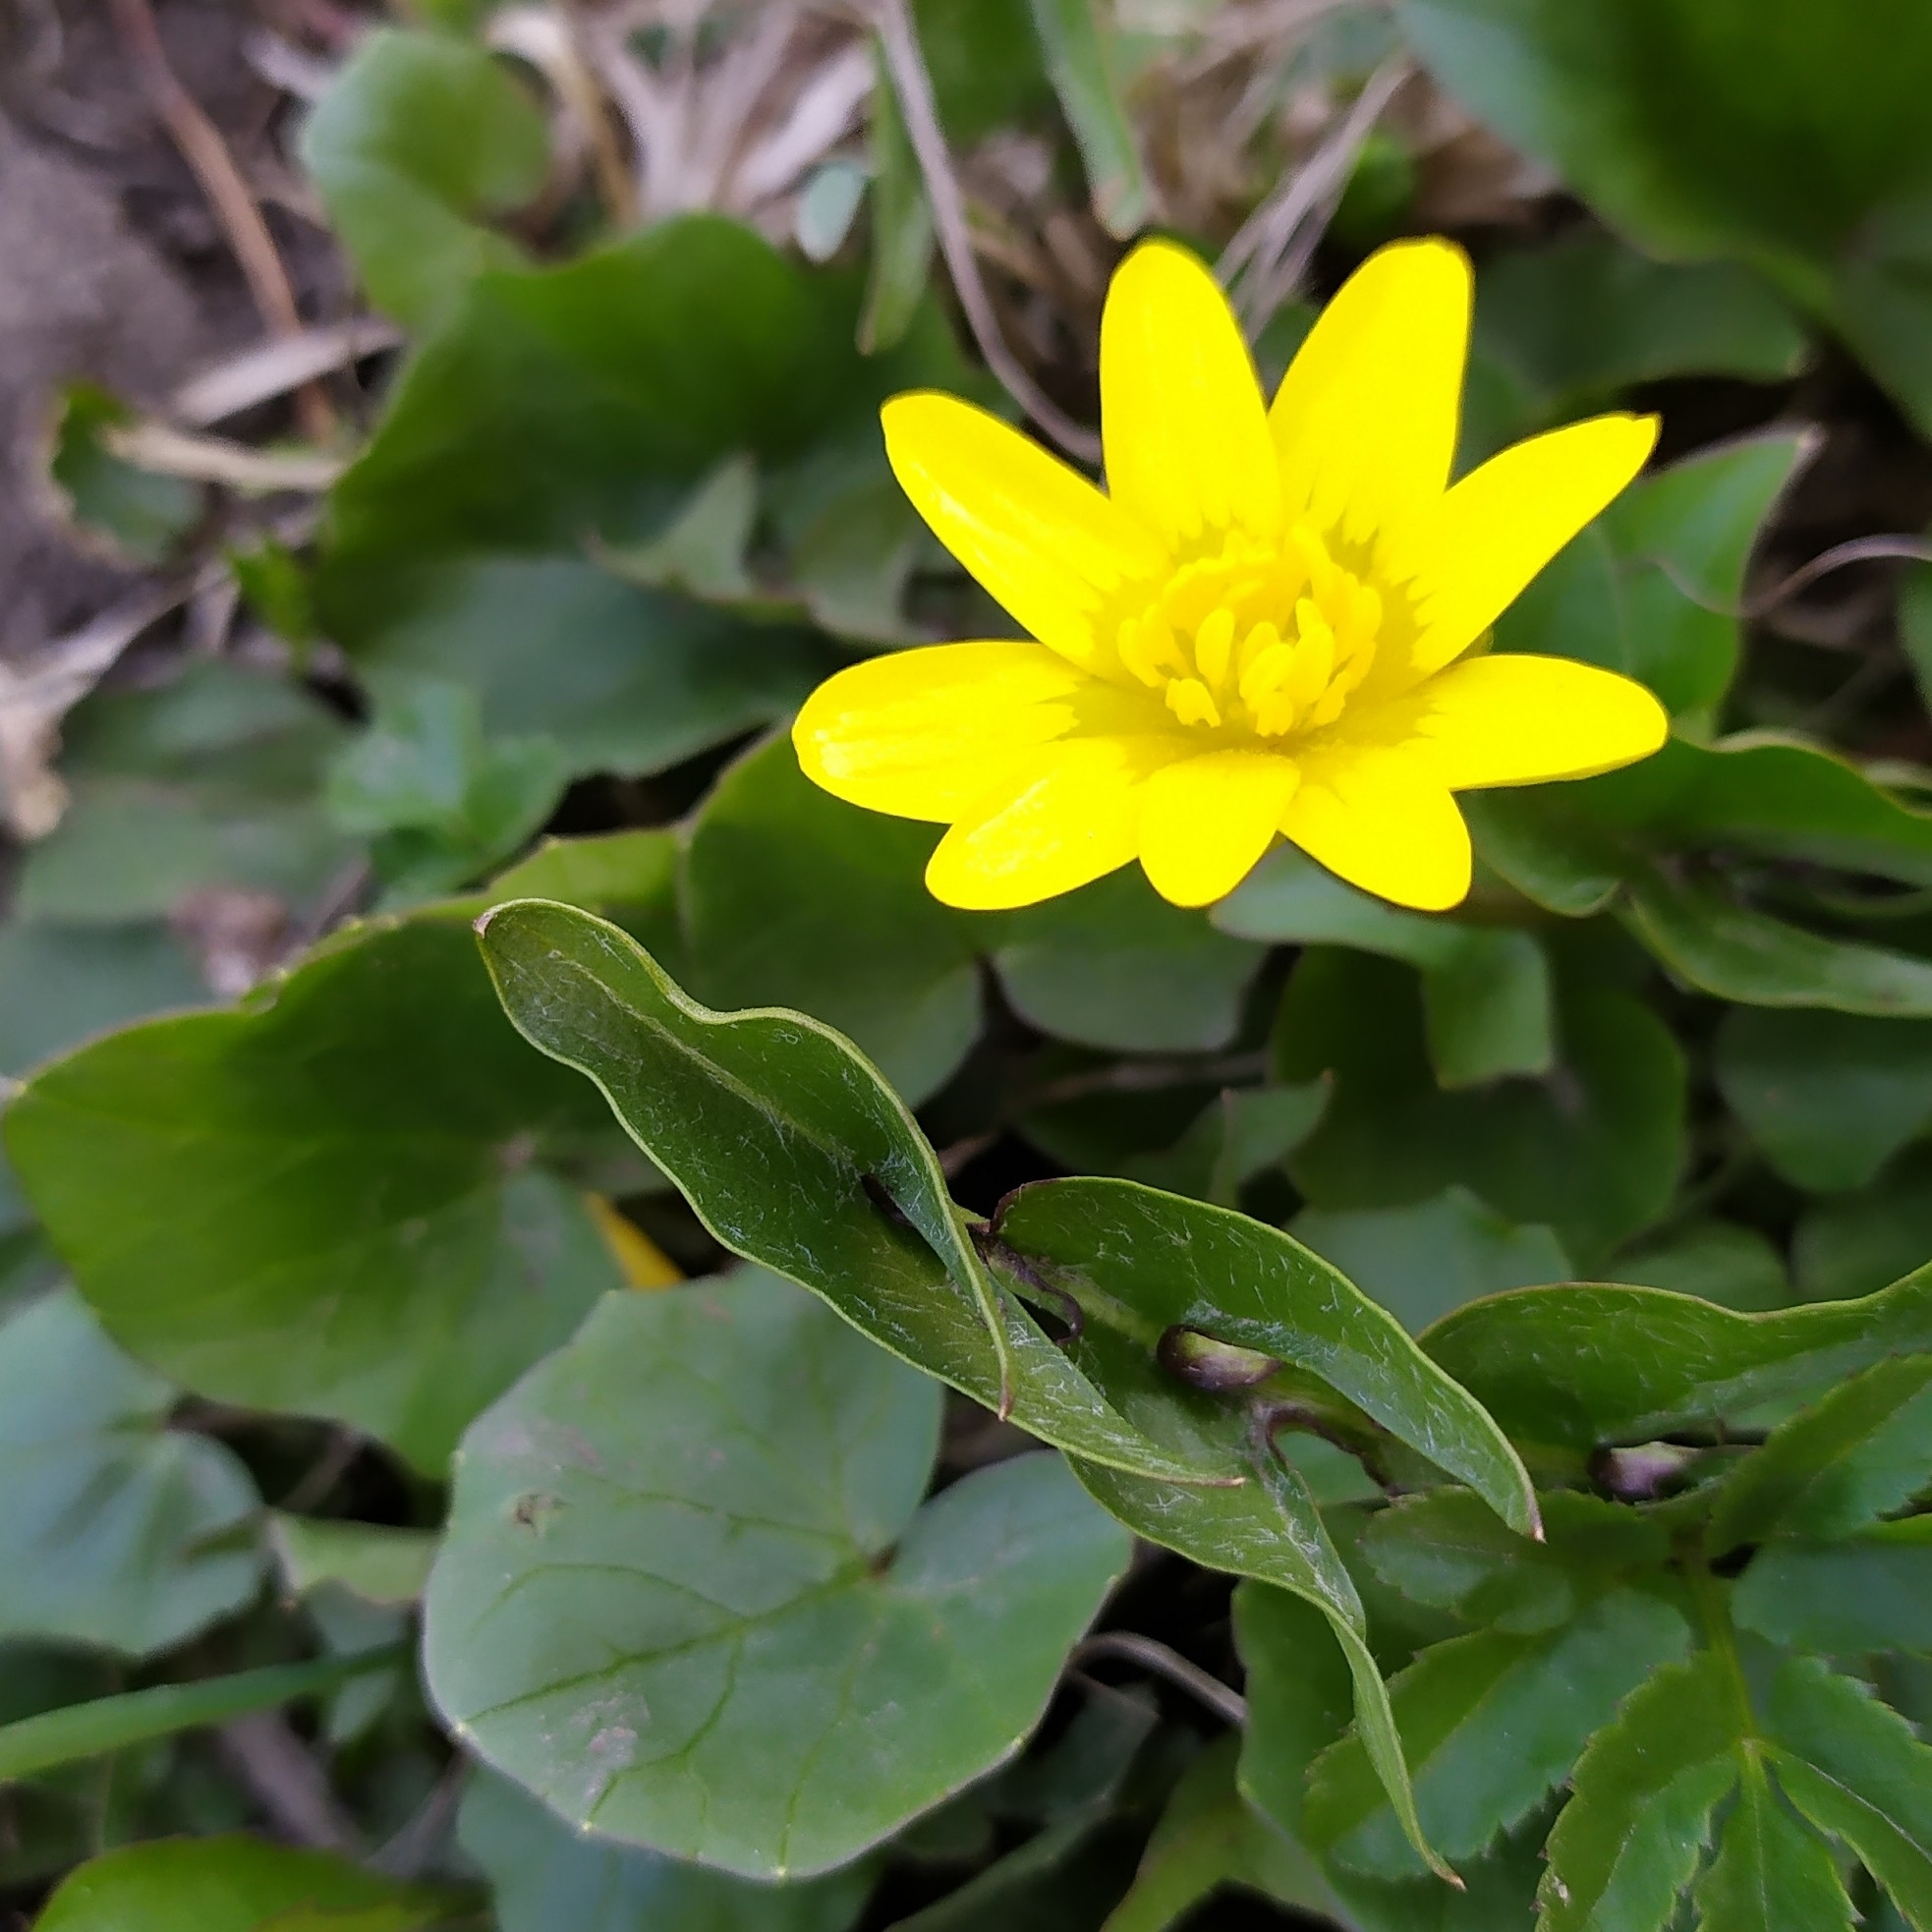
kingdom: Plantae
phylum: Tracheophyta
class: Magnoliopsida
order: Ranunculales
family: Ranunculaceae
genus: Ficaria
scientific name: Ficaria verna
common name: Lesser celandine
